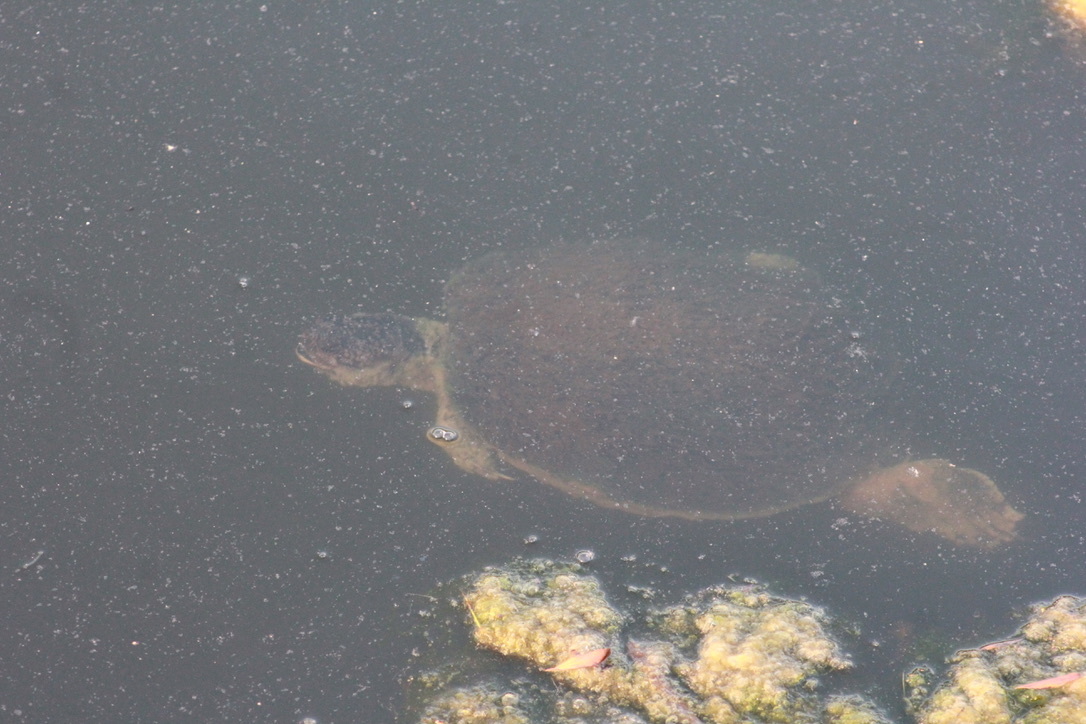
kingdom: Animalia
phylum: Chordata
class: Testudines
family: Emydidae
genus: Trachemys
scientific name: Trachemys scripta
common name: Slider
